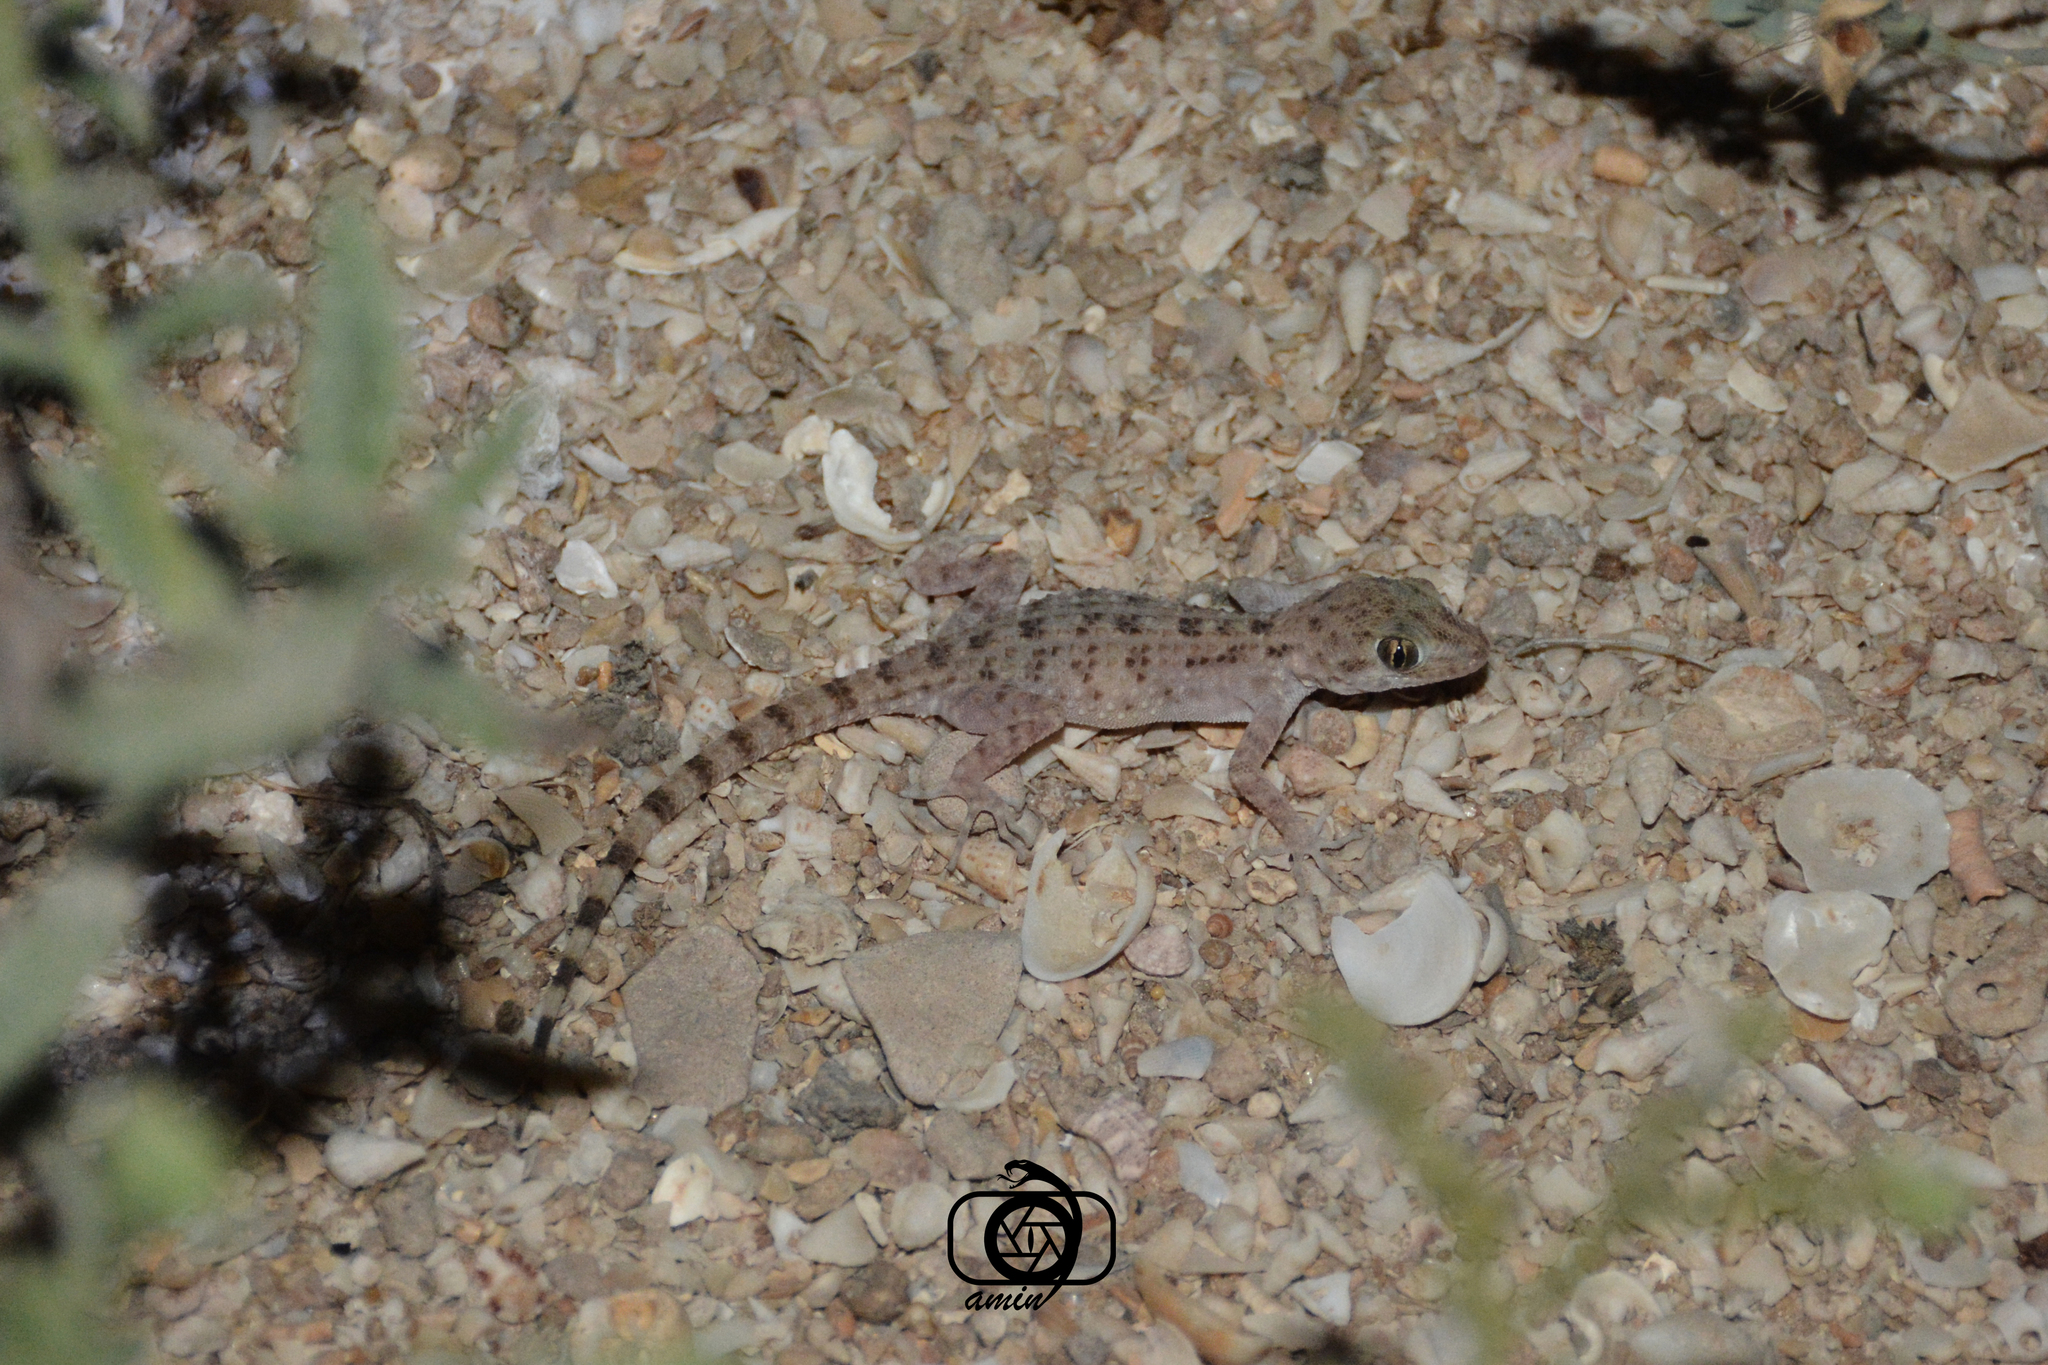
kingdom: Animalia
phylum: Chordata
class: Squamata
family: Gekkonidae
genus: Cyrtopodion
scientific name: Cyrtopodion kachhense
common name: Warty rock gecko
